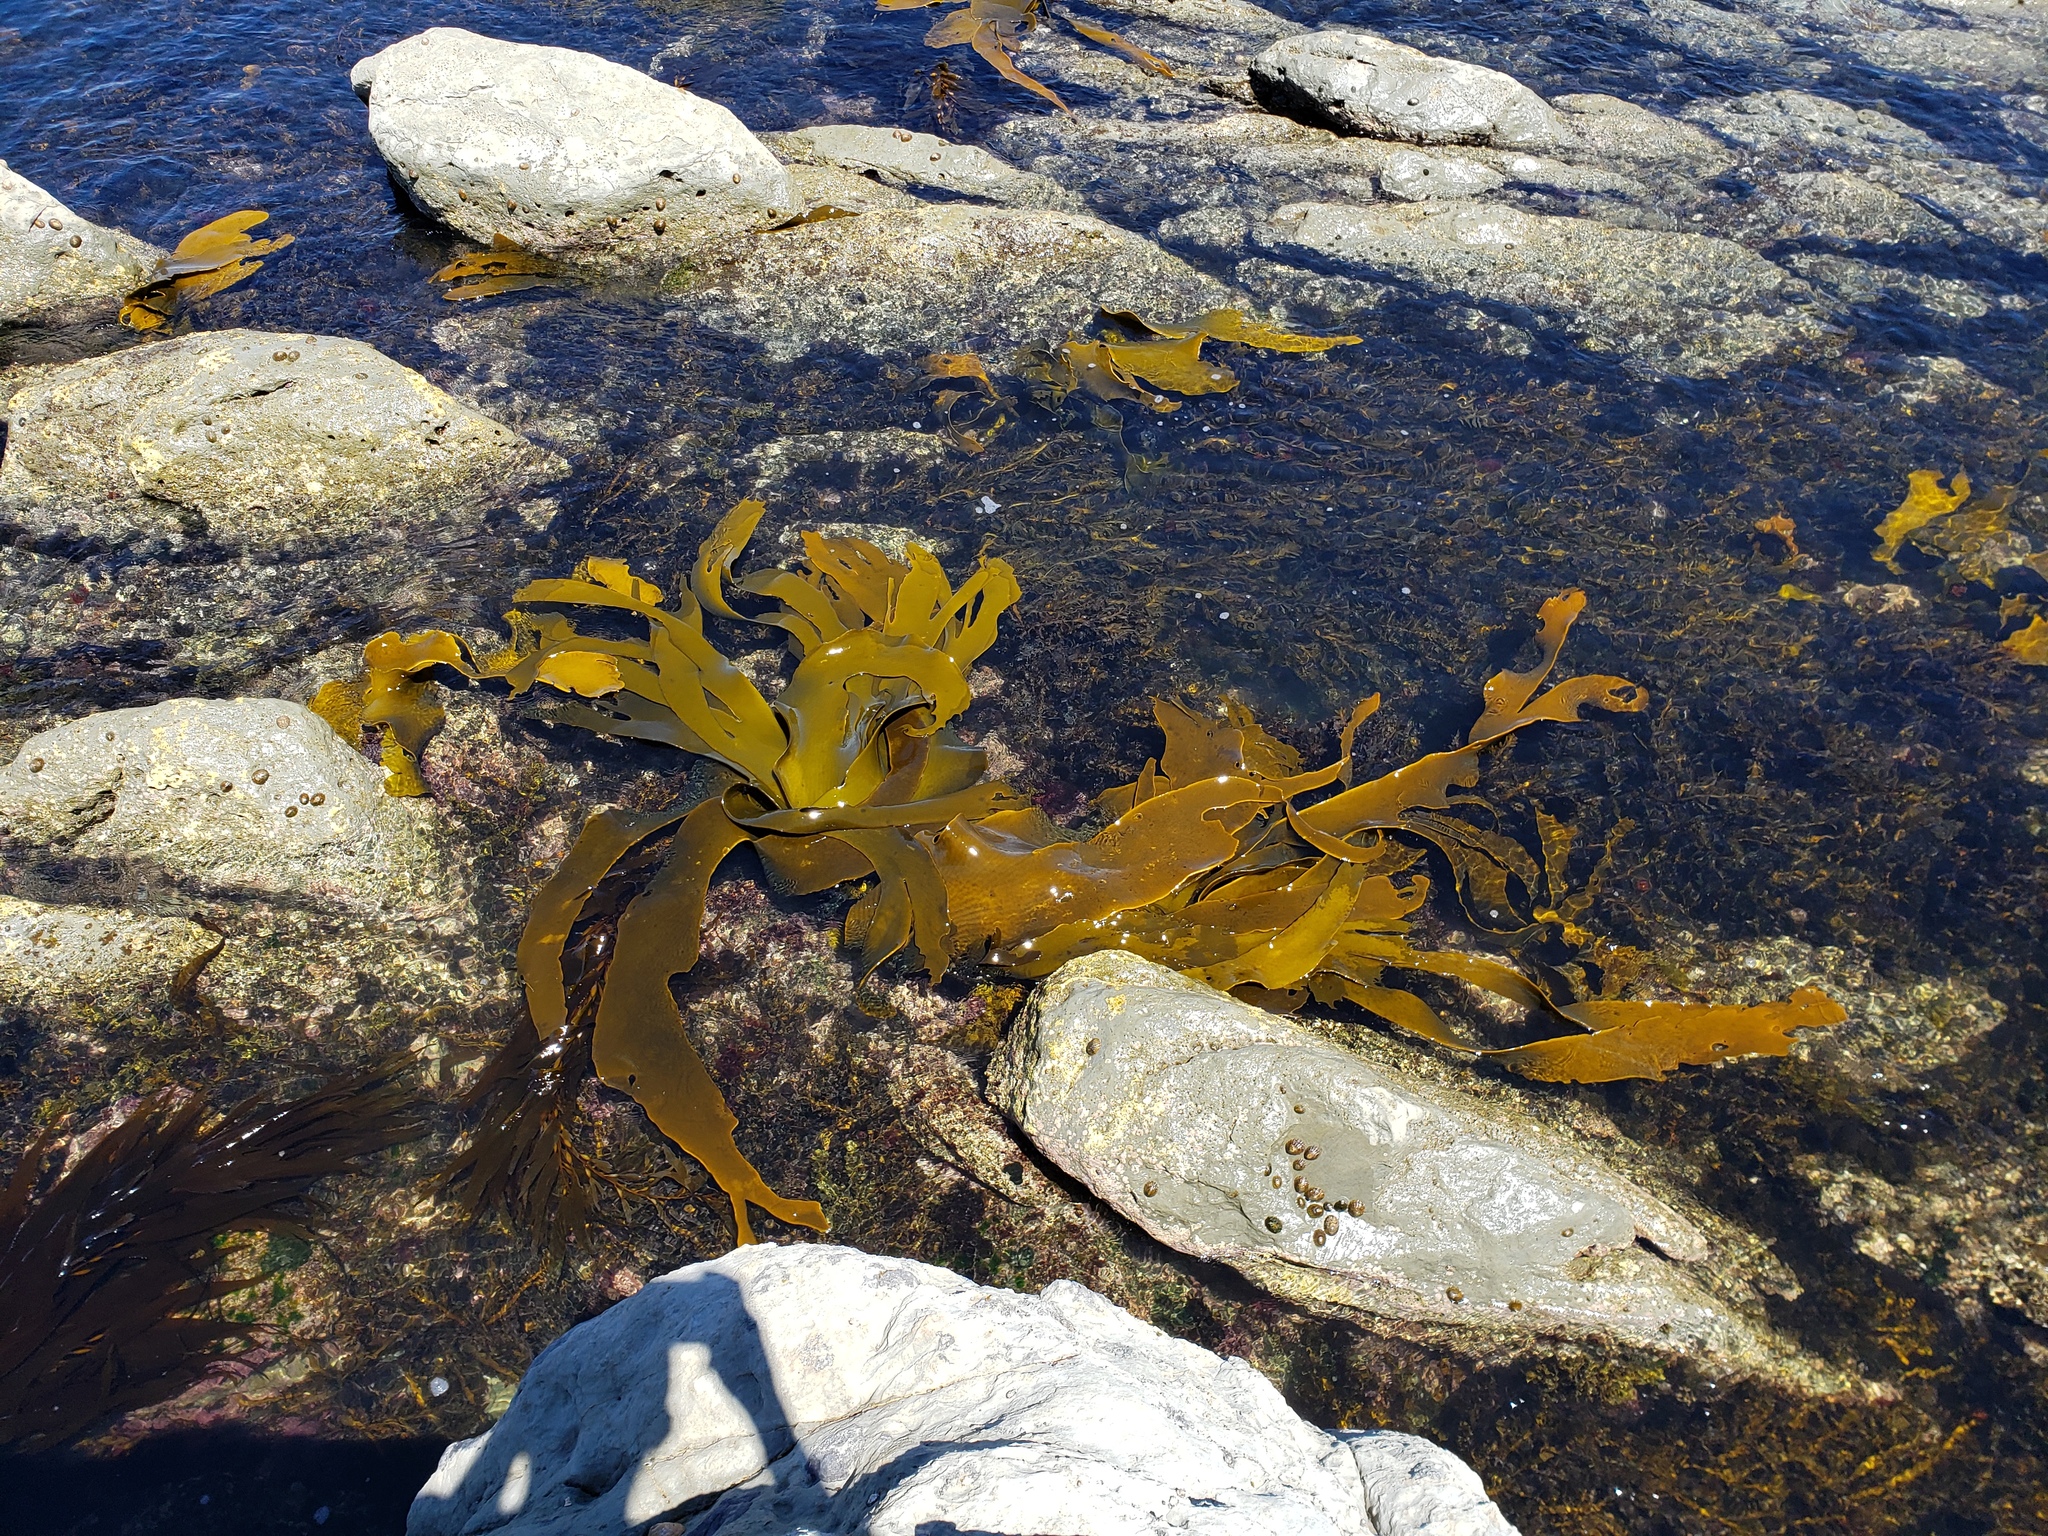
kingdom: Chromista
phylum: Ochrophyta
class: Phaeophyceae
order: Fucales
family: Durvillaeaceae
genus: Durvillaea
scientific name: Durvillaea poha
